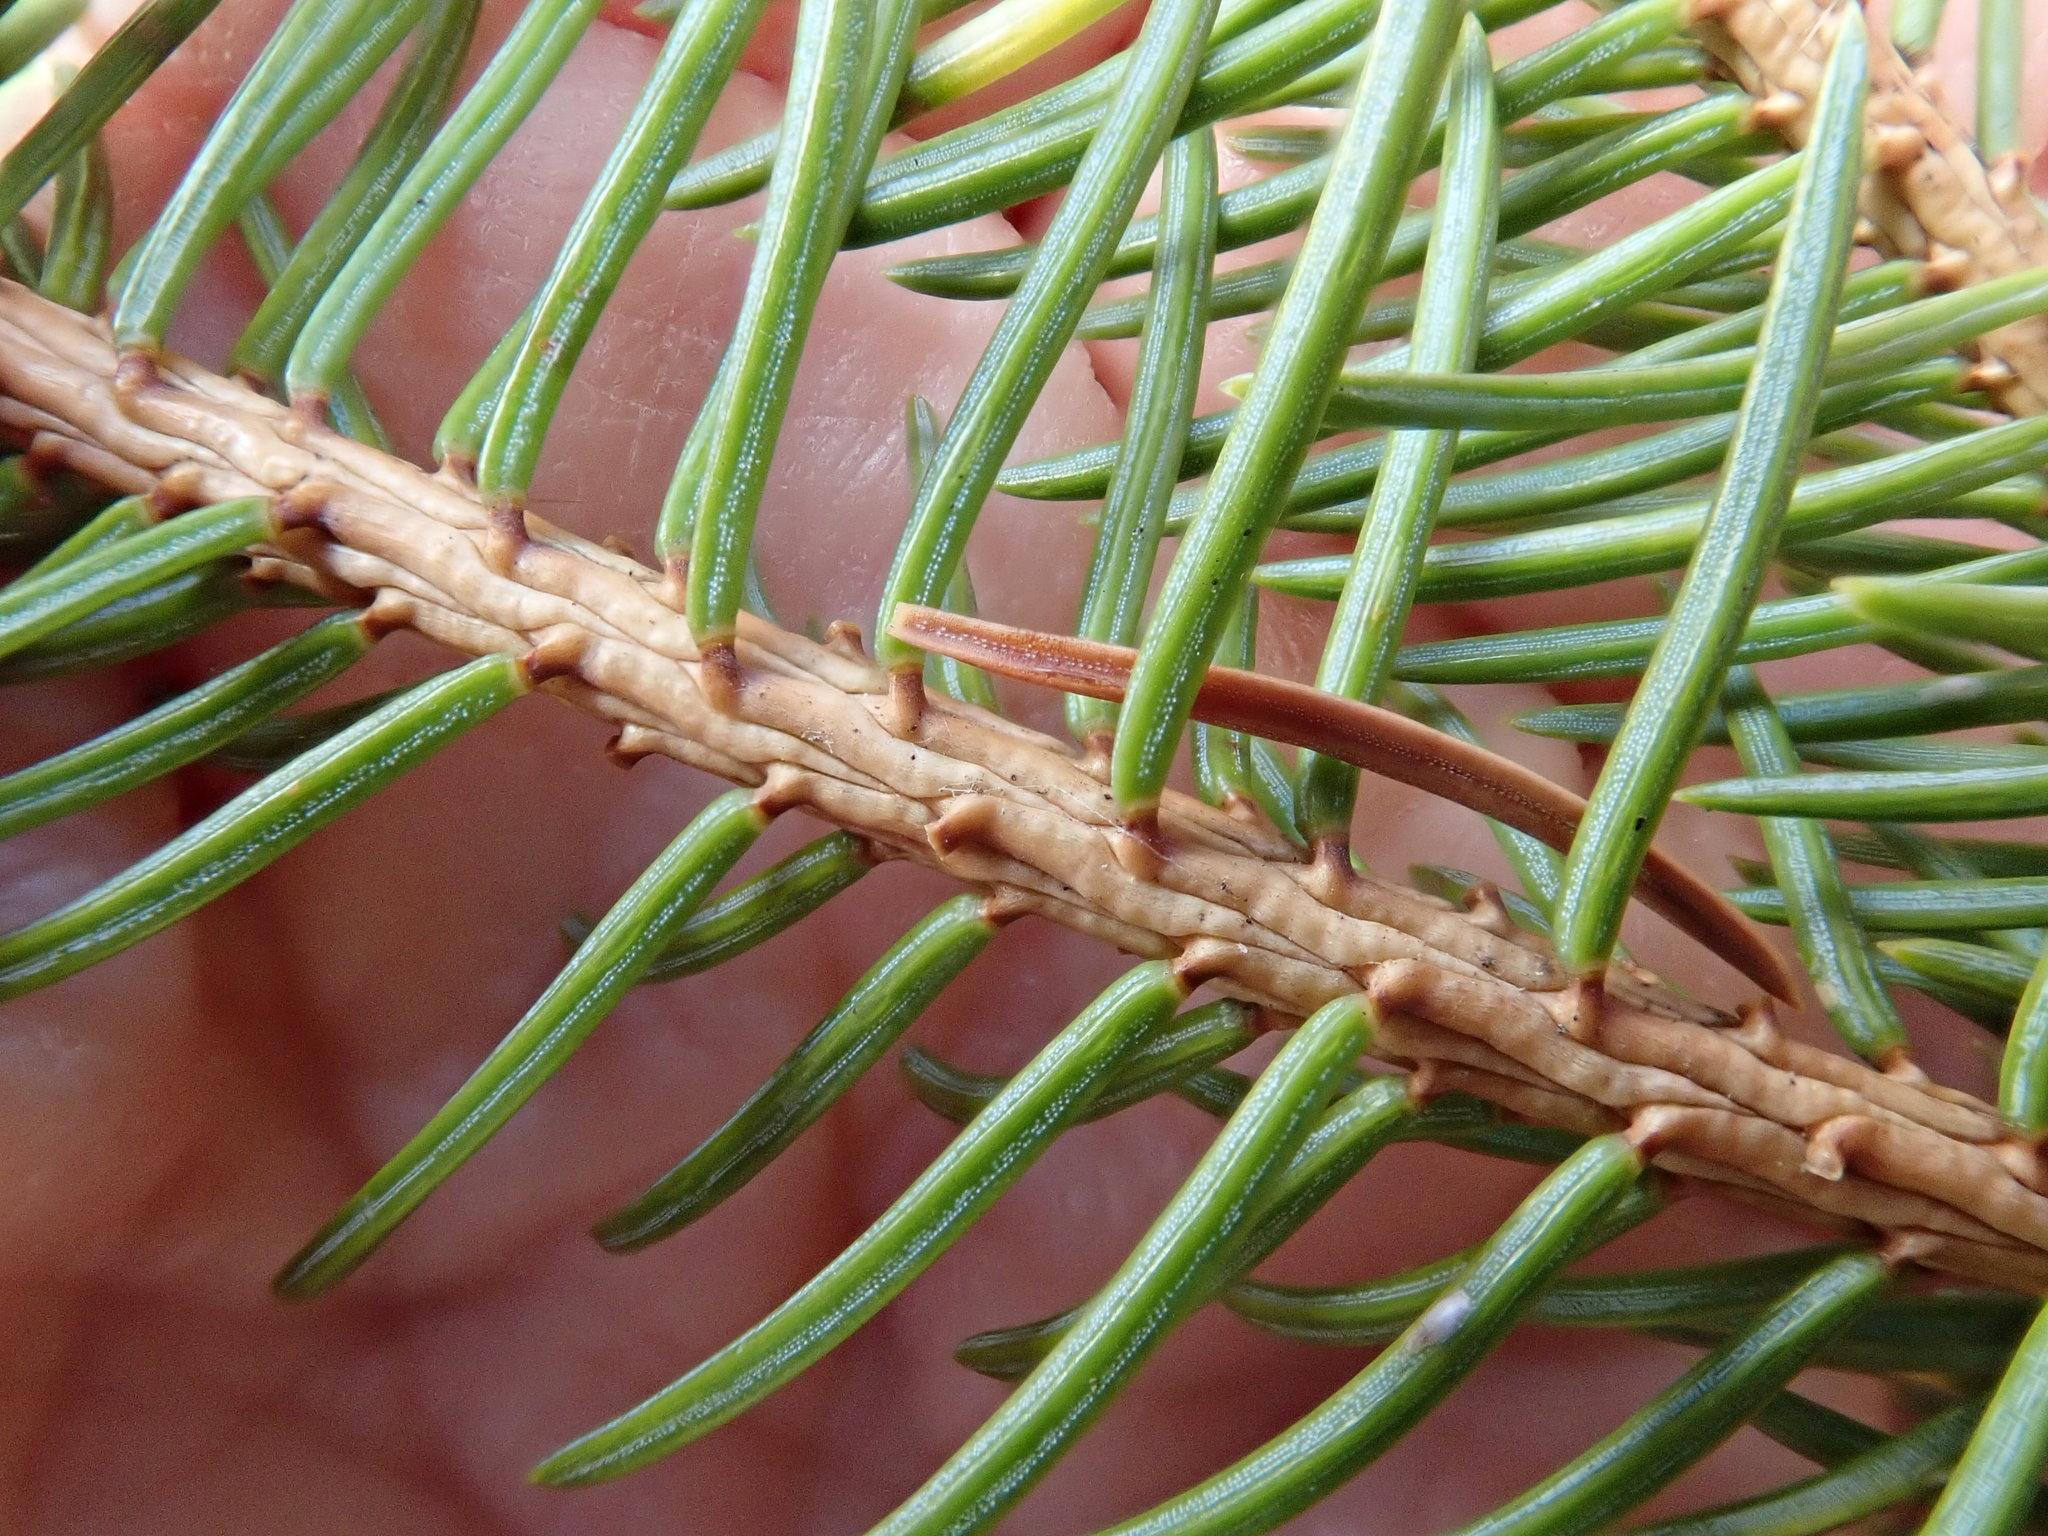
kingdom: Plantae
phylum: Tracheophyta
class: Pinopsida
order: Pinales
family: Pinaceae
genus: Picea
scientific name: Picea
